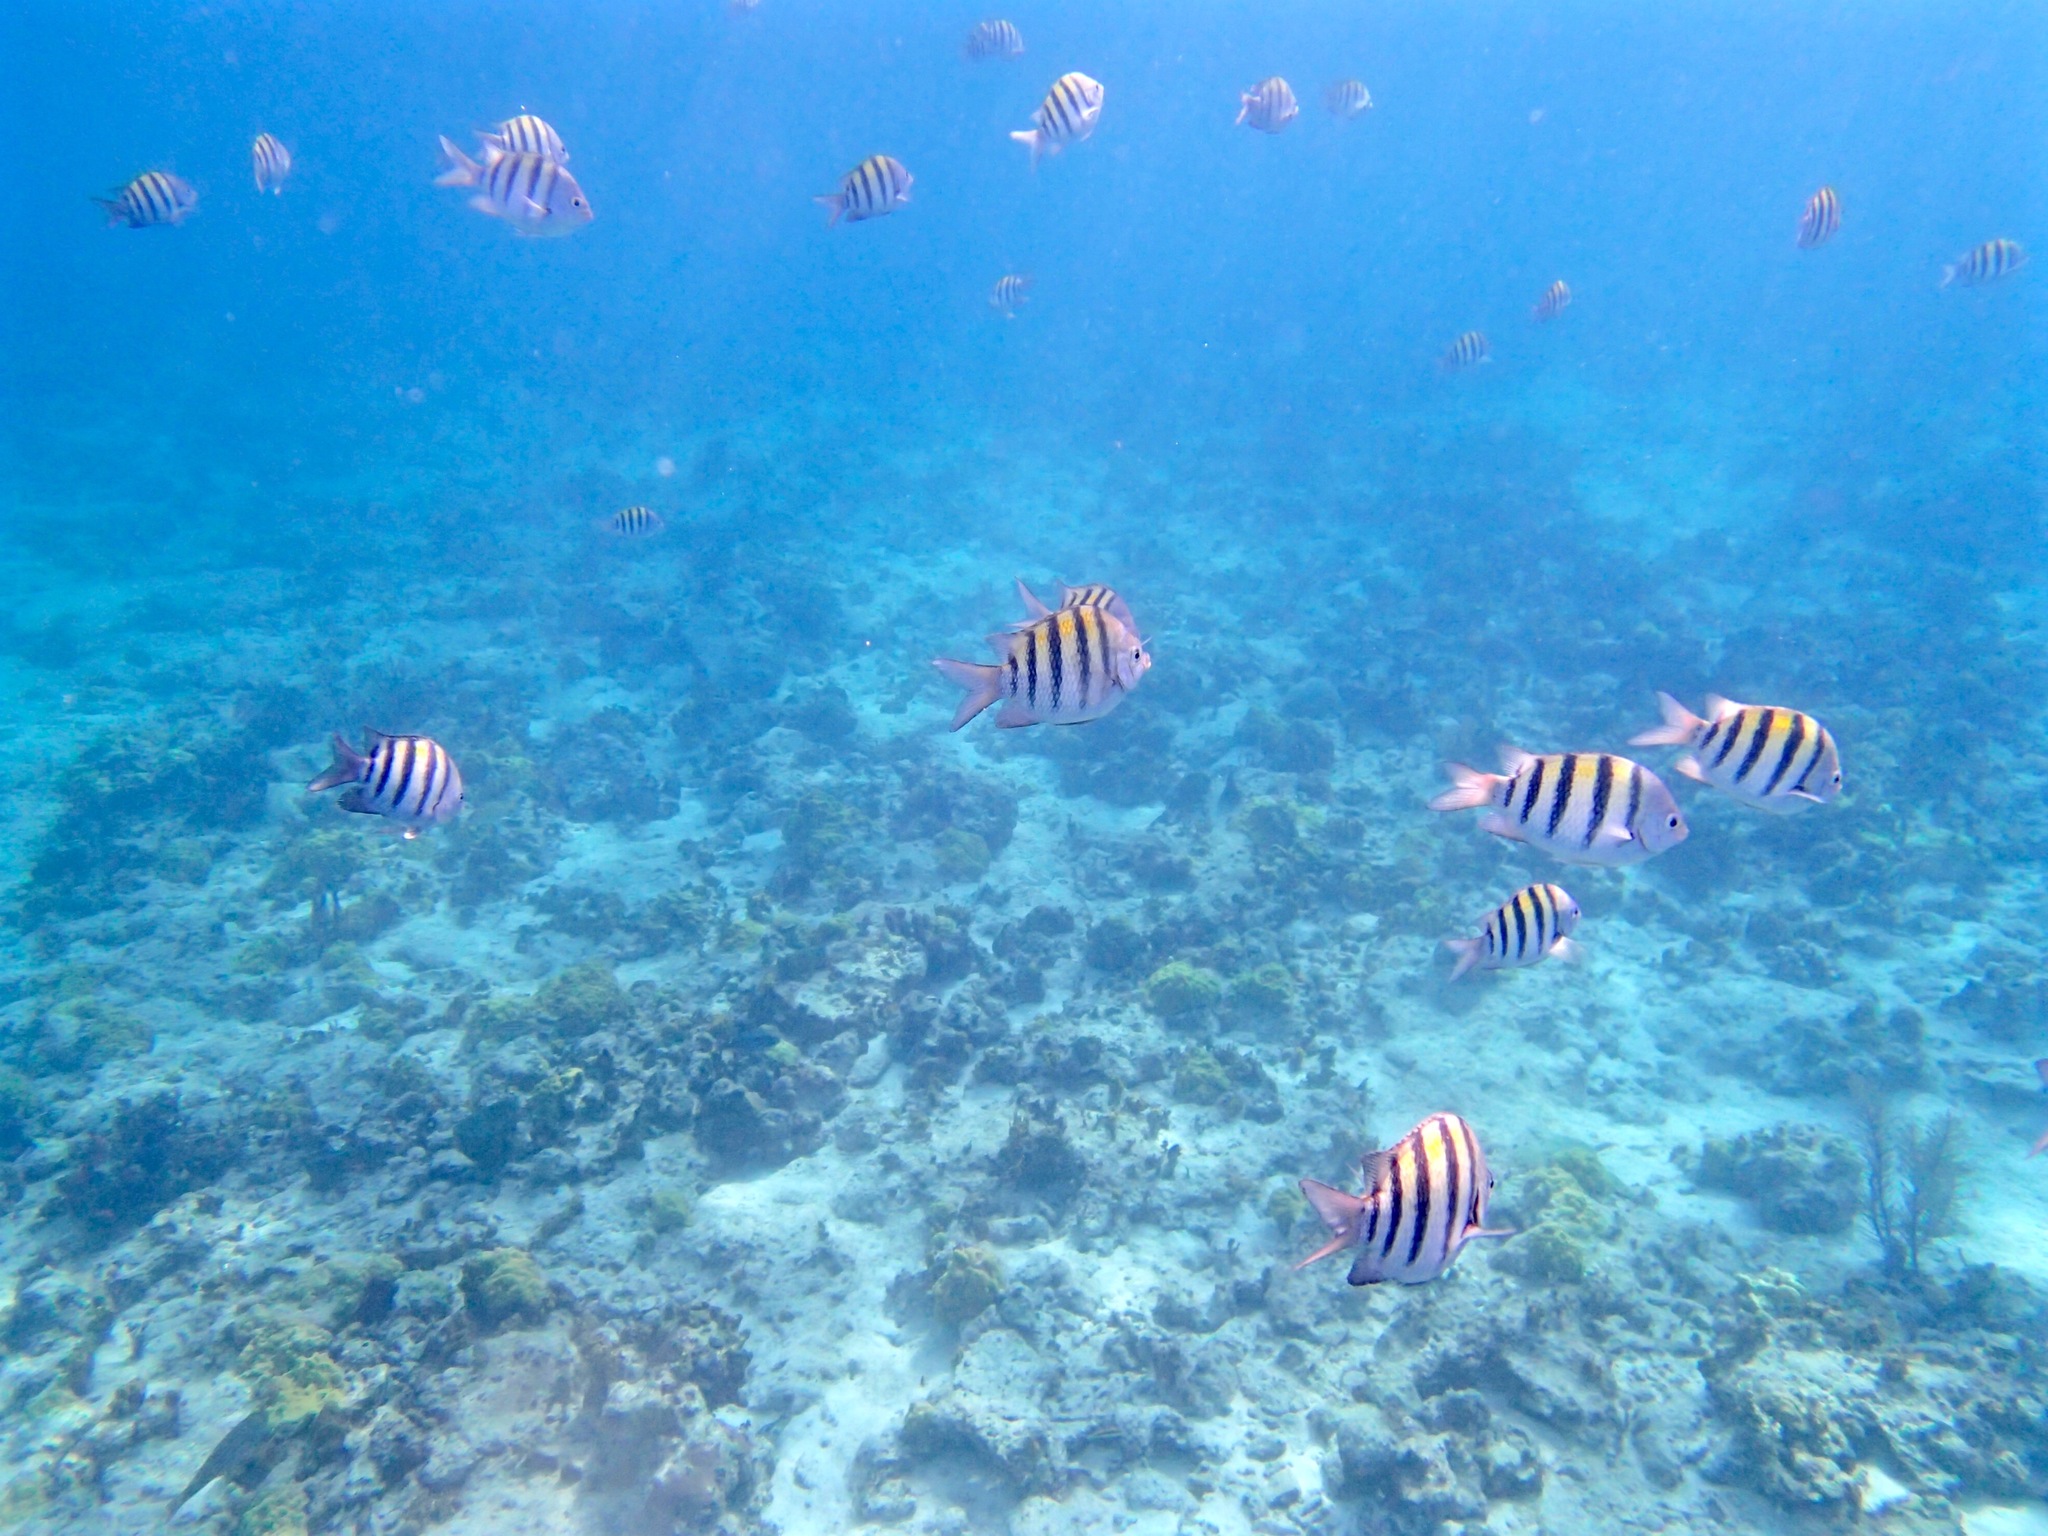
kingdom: Animalia
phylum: Chordata
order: Perciformes
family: Pomacentridae
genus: Abudefduf
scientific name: Abudefduf saxatilis
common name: Sergeant major
